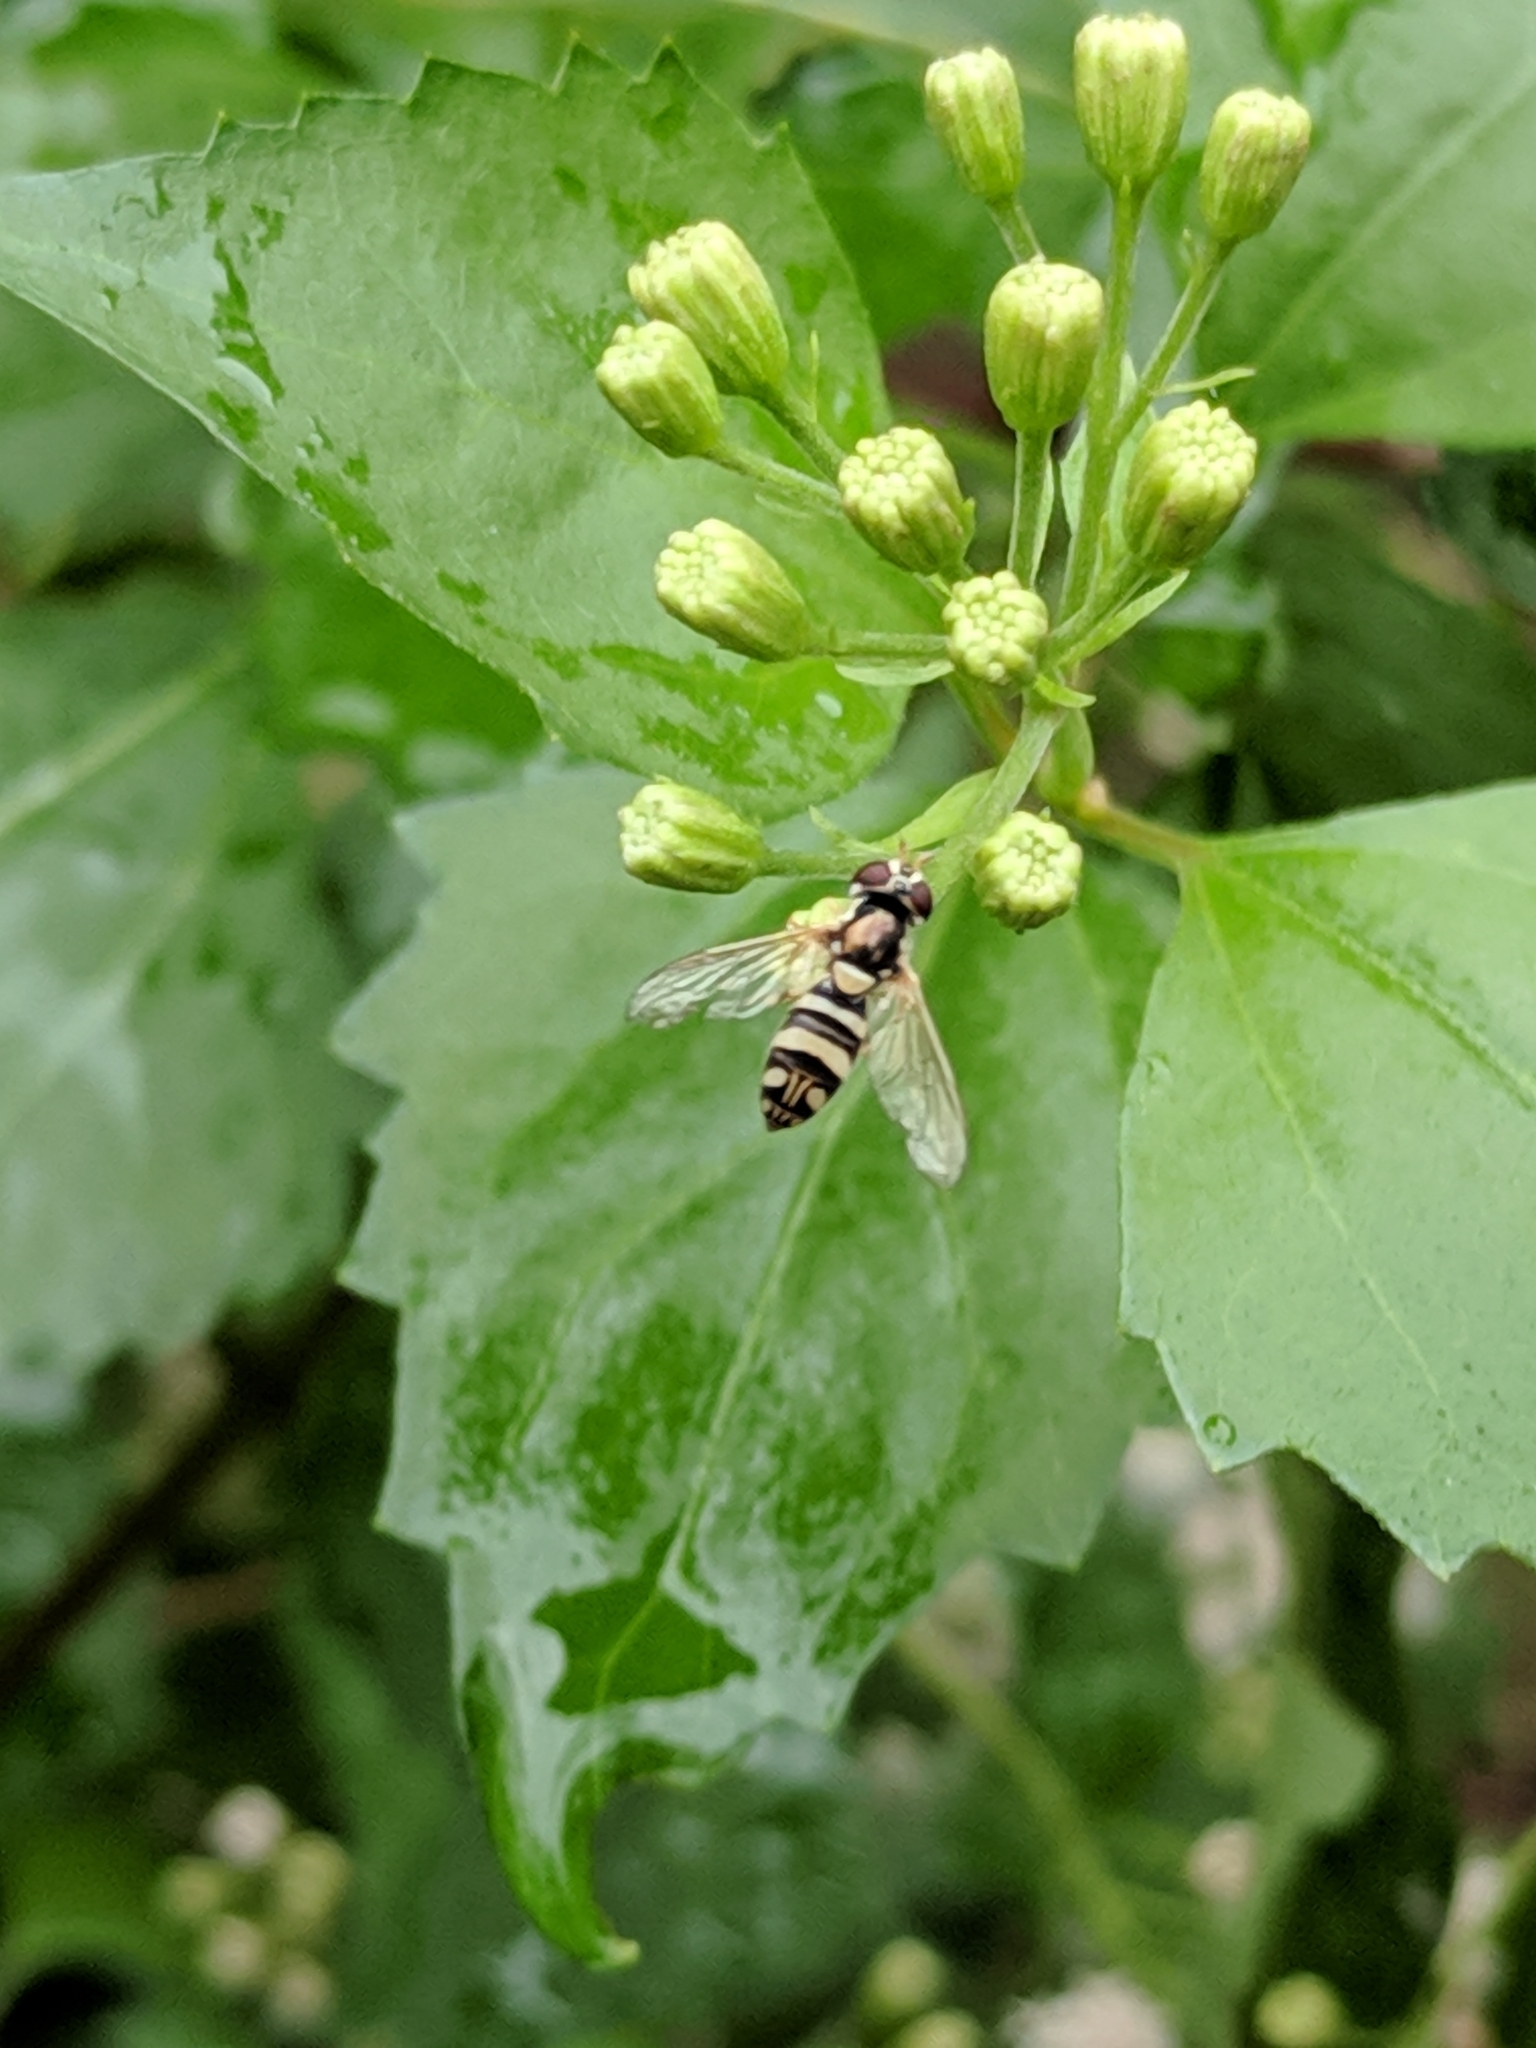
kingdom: Animalia
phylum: Arthropoda
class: Insecta
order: Diptera
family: Syrphidae
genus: Allograpta
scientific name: Allograpta exotica
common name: Syrphid fly
